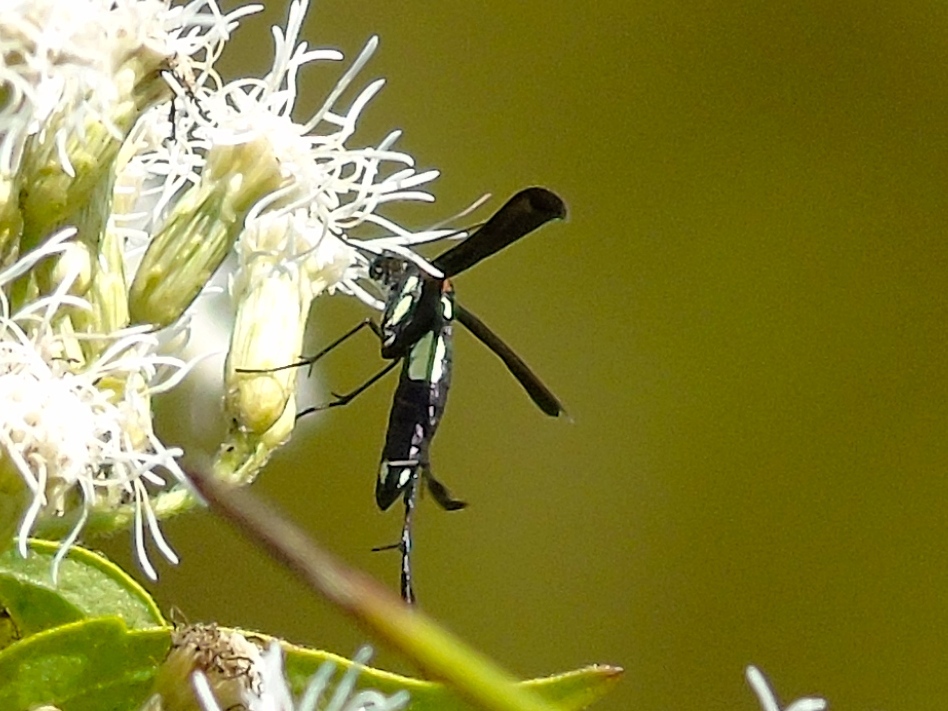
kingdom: Animalia
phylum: Arthropoda
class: Insecta
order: Lepidoptera
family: Pterophoridae
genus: Hellinsia
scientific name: Hellinsia chamelai
